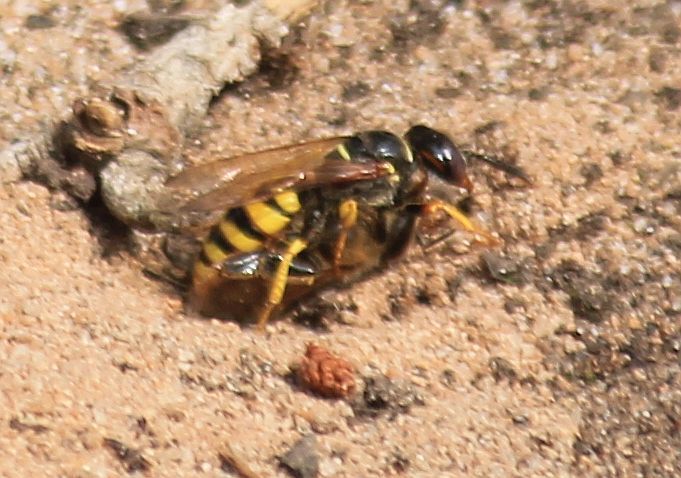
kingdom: Animalia
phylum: Arthropoda
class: Insecta
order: Hymenoptera
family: Crabronidae
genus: Philanthus
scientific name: Philanthus triangulum
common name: Bee wolf
